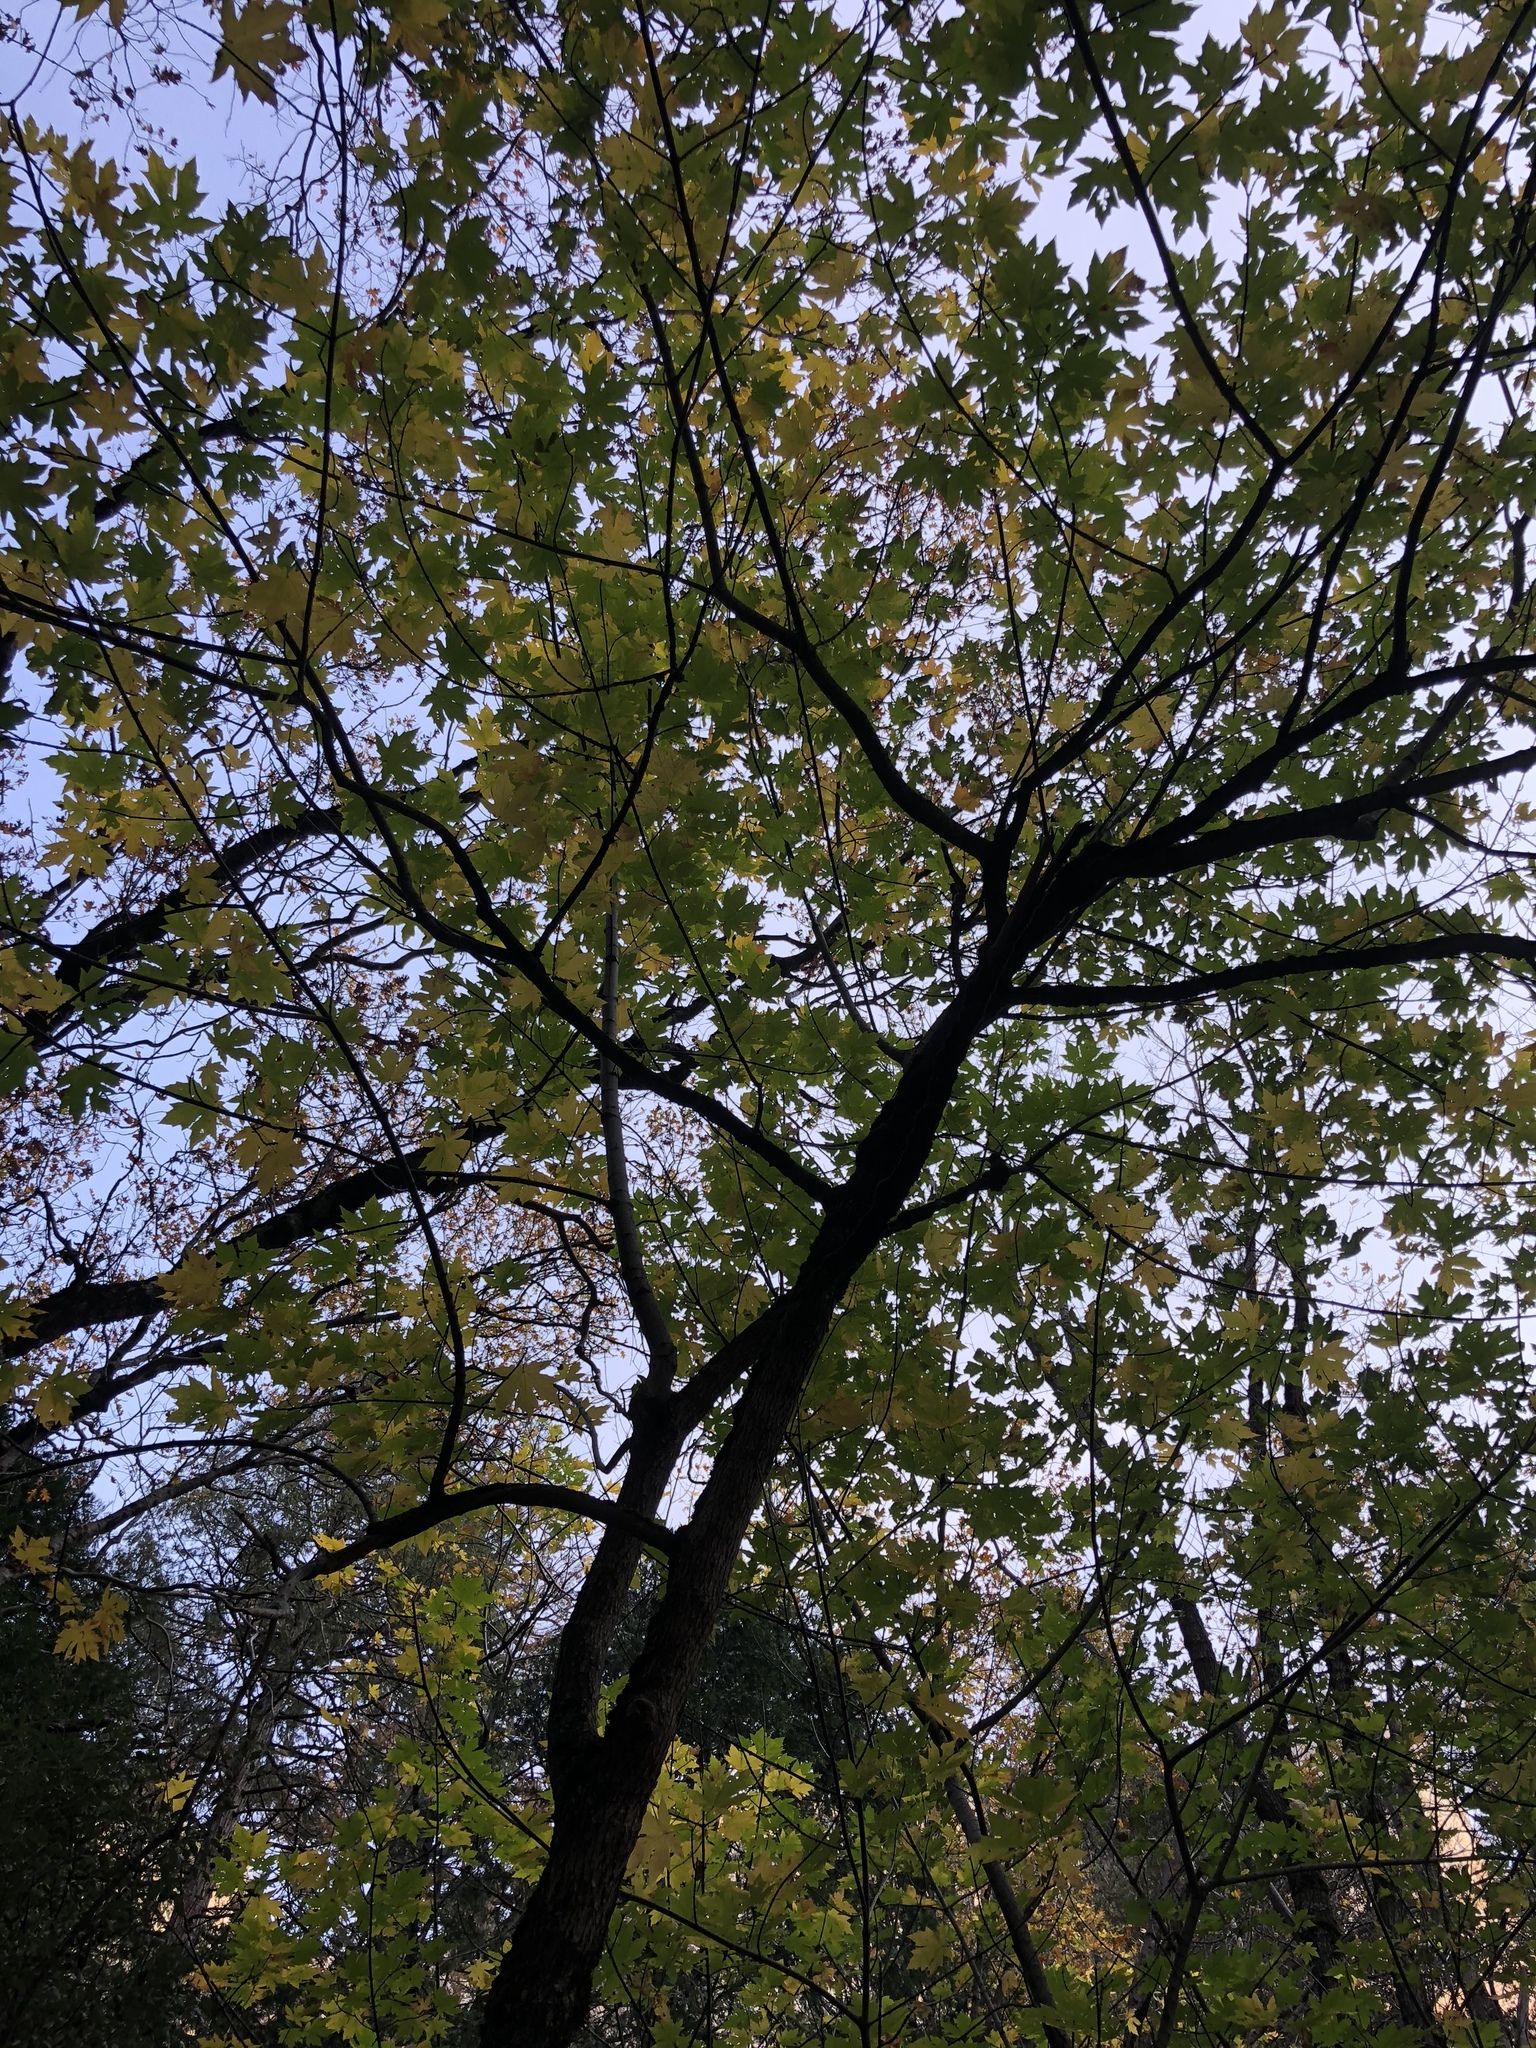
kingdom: Plantae
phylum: Tracheophyta
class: Magnoliopsida
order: Sapindales
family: Sapindaceae
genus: Acer
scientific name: Acer macrophyllum
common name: Oregon maple
